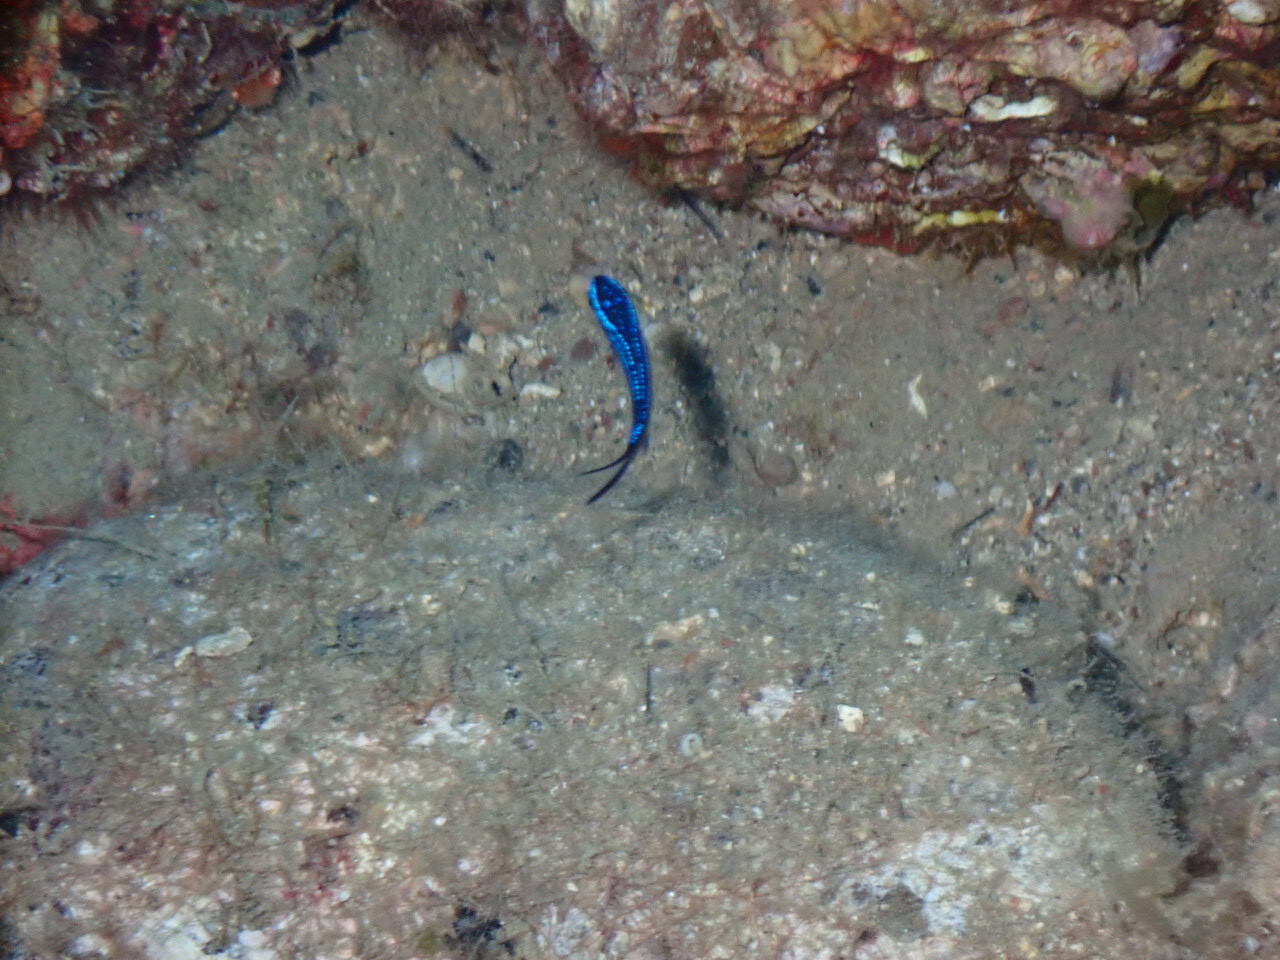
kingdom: Animalia
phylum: Chordata
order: Perciformes
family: Pomacentridae
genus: Chromis
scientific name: Chromis chromis
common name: Damselfish
